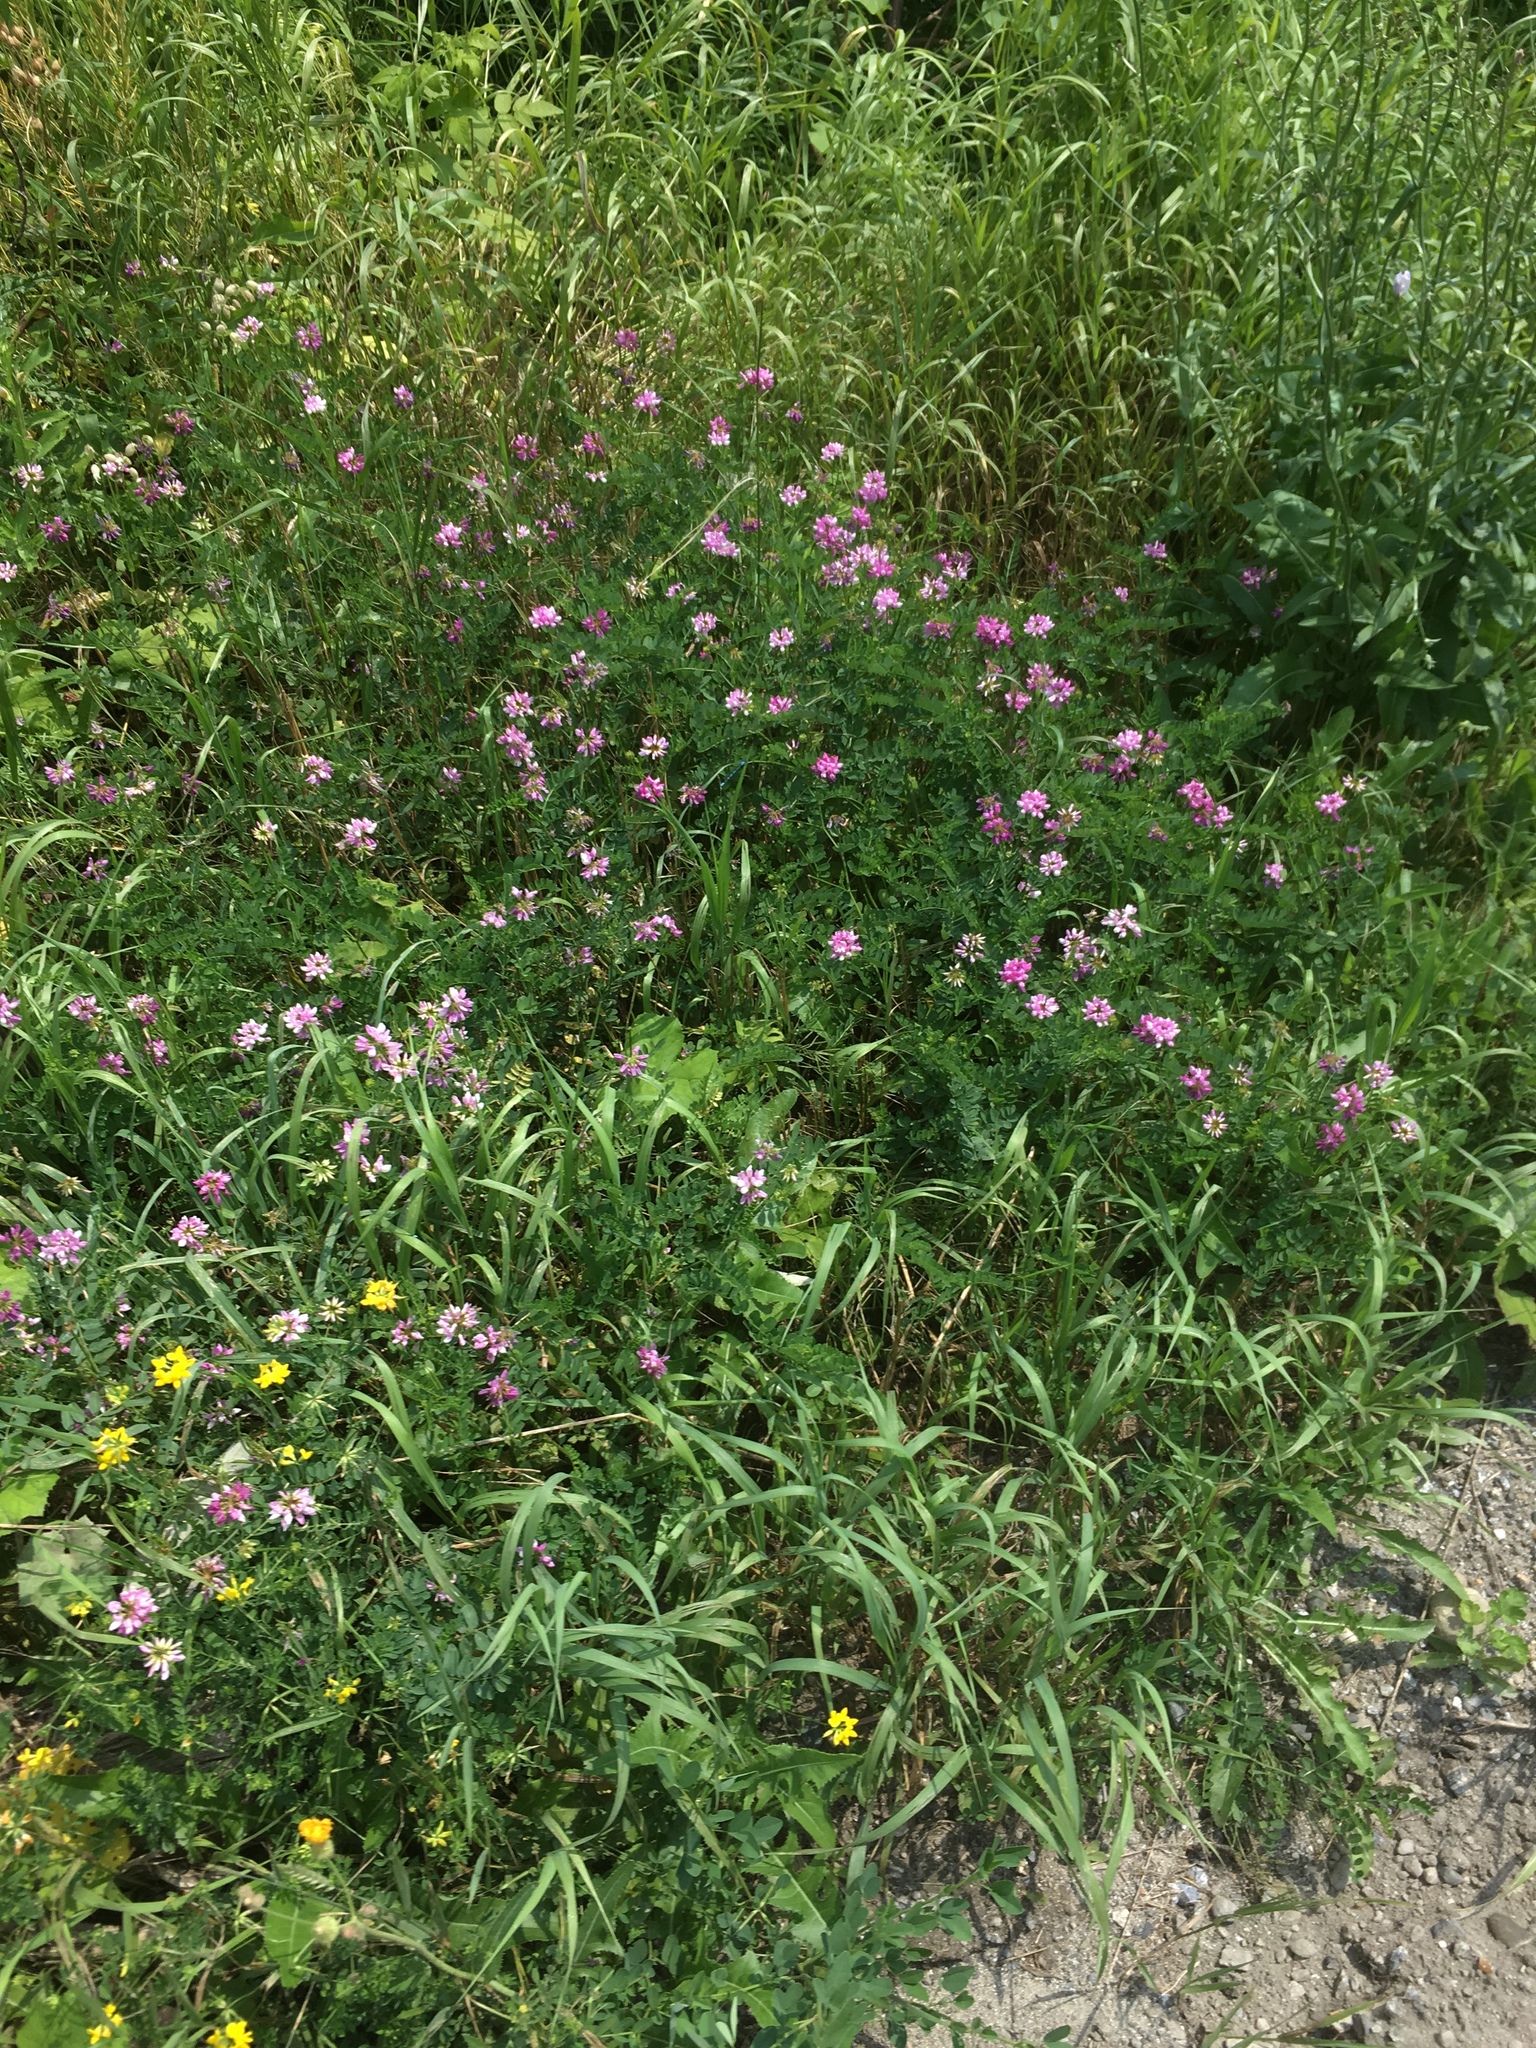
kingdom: Plantae
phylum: Tracheophyta
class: Magnoliopsida
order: Fabales
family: Fabaceae
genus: Coronilla
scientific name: Coronilla varia
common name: Crownvetch
